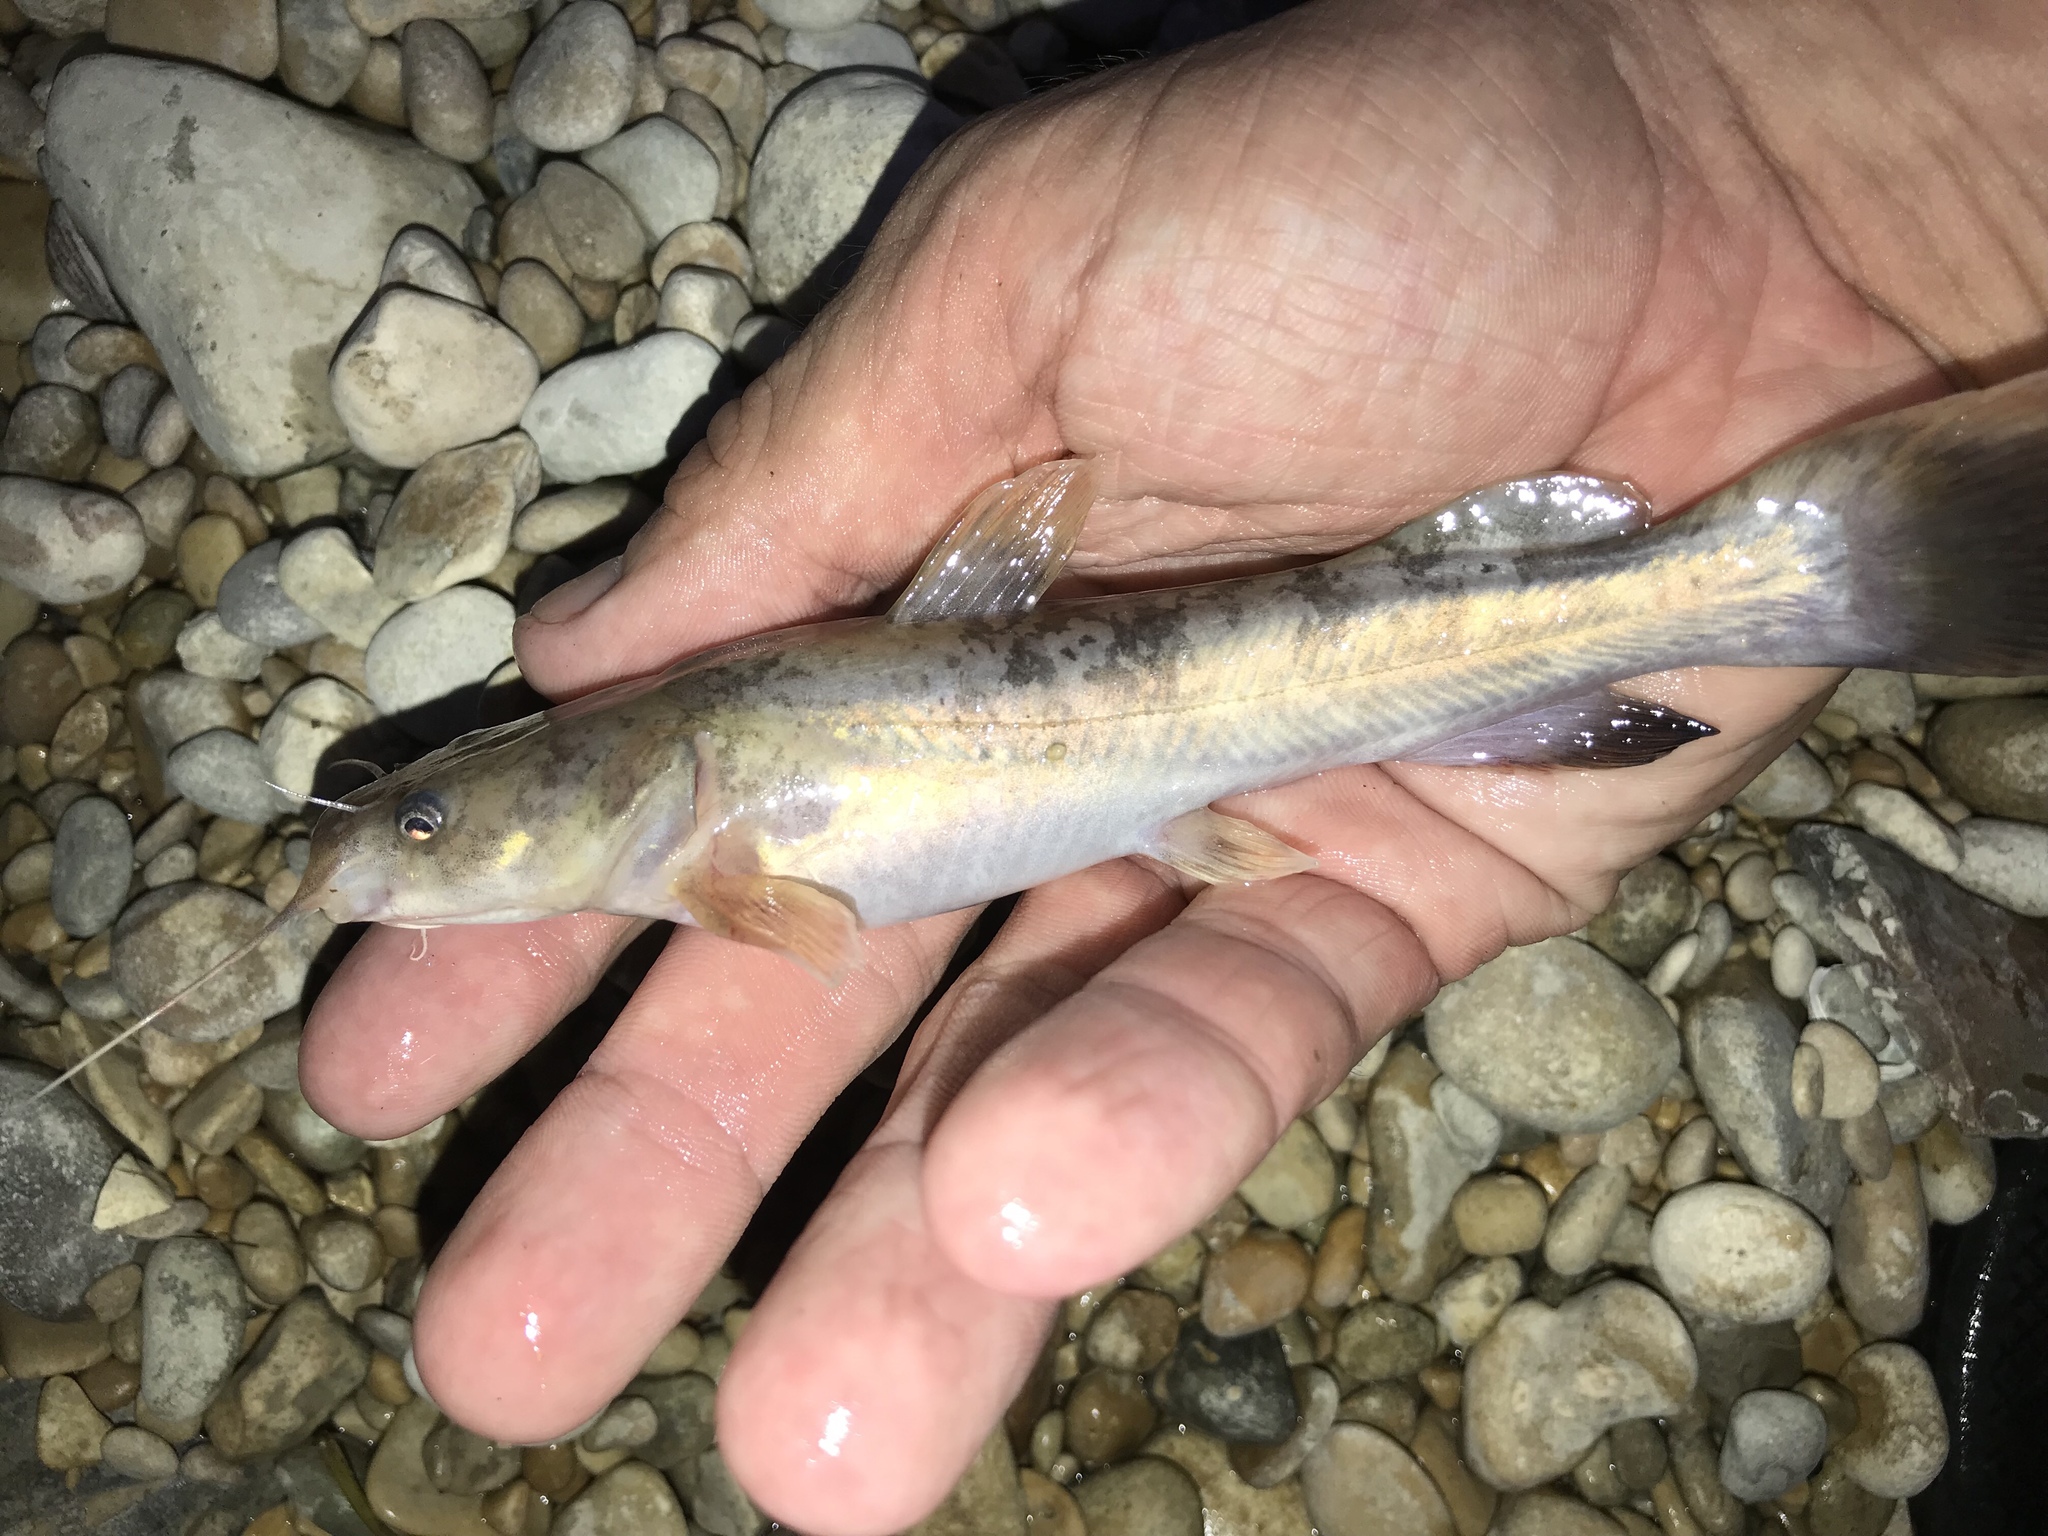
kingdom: Animalia
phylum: Chordata
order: Siluriformes
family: Ictaluridae
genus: Pylodictis
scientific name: Pylodictis olivaris
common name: Flathead catfish
